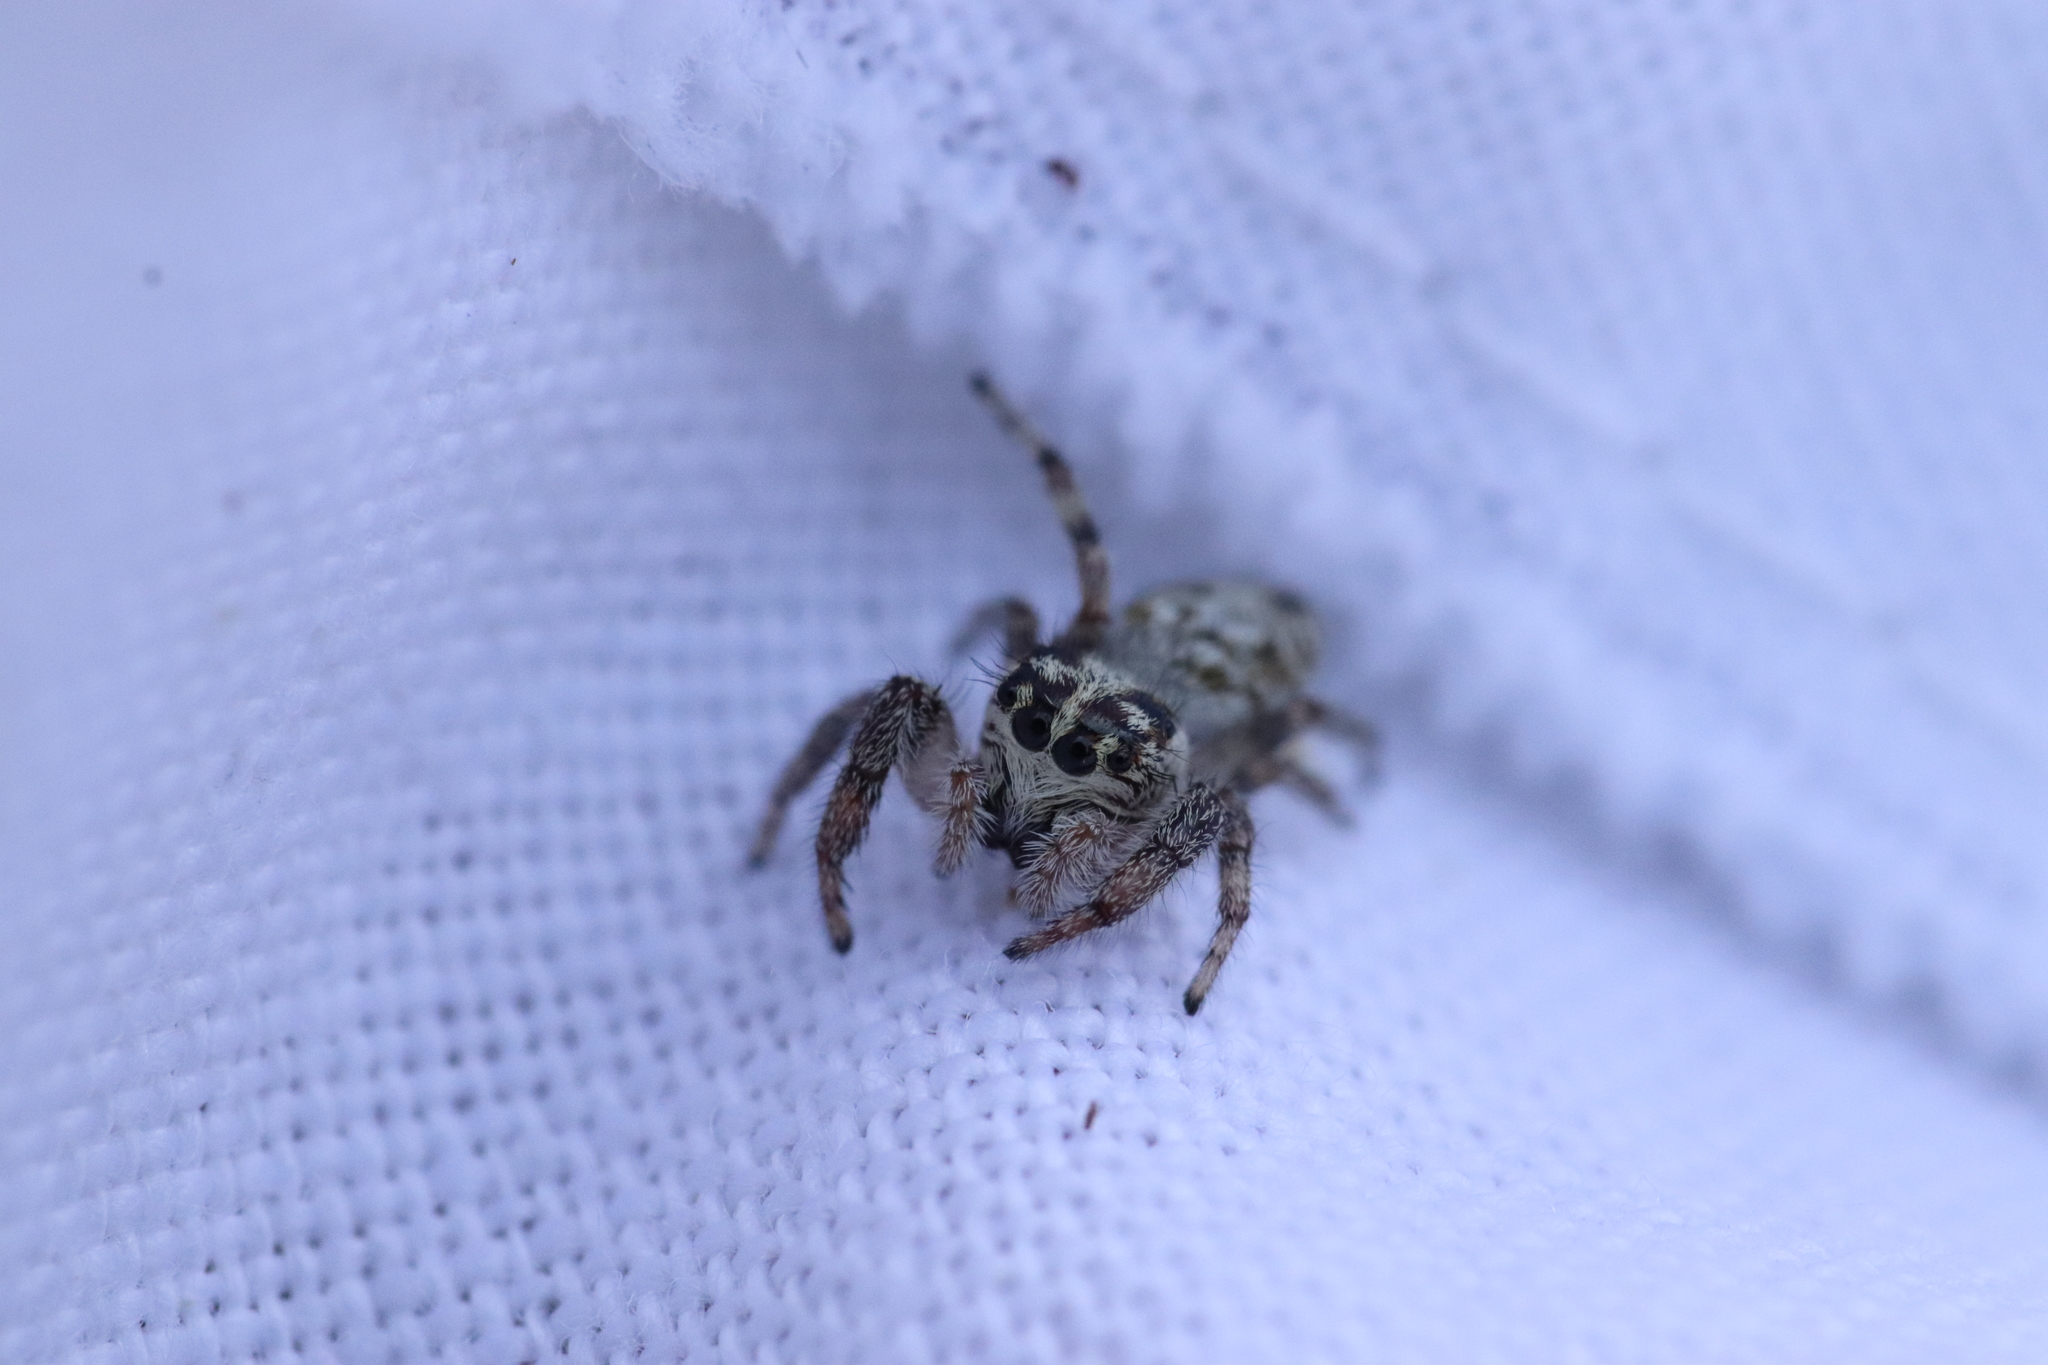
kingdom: Animalia
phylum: Arthropoda
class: Arachnida
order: Araneae
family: Salticidae
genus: Macaroeris
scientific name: Macaroeris nidicolens
